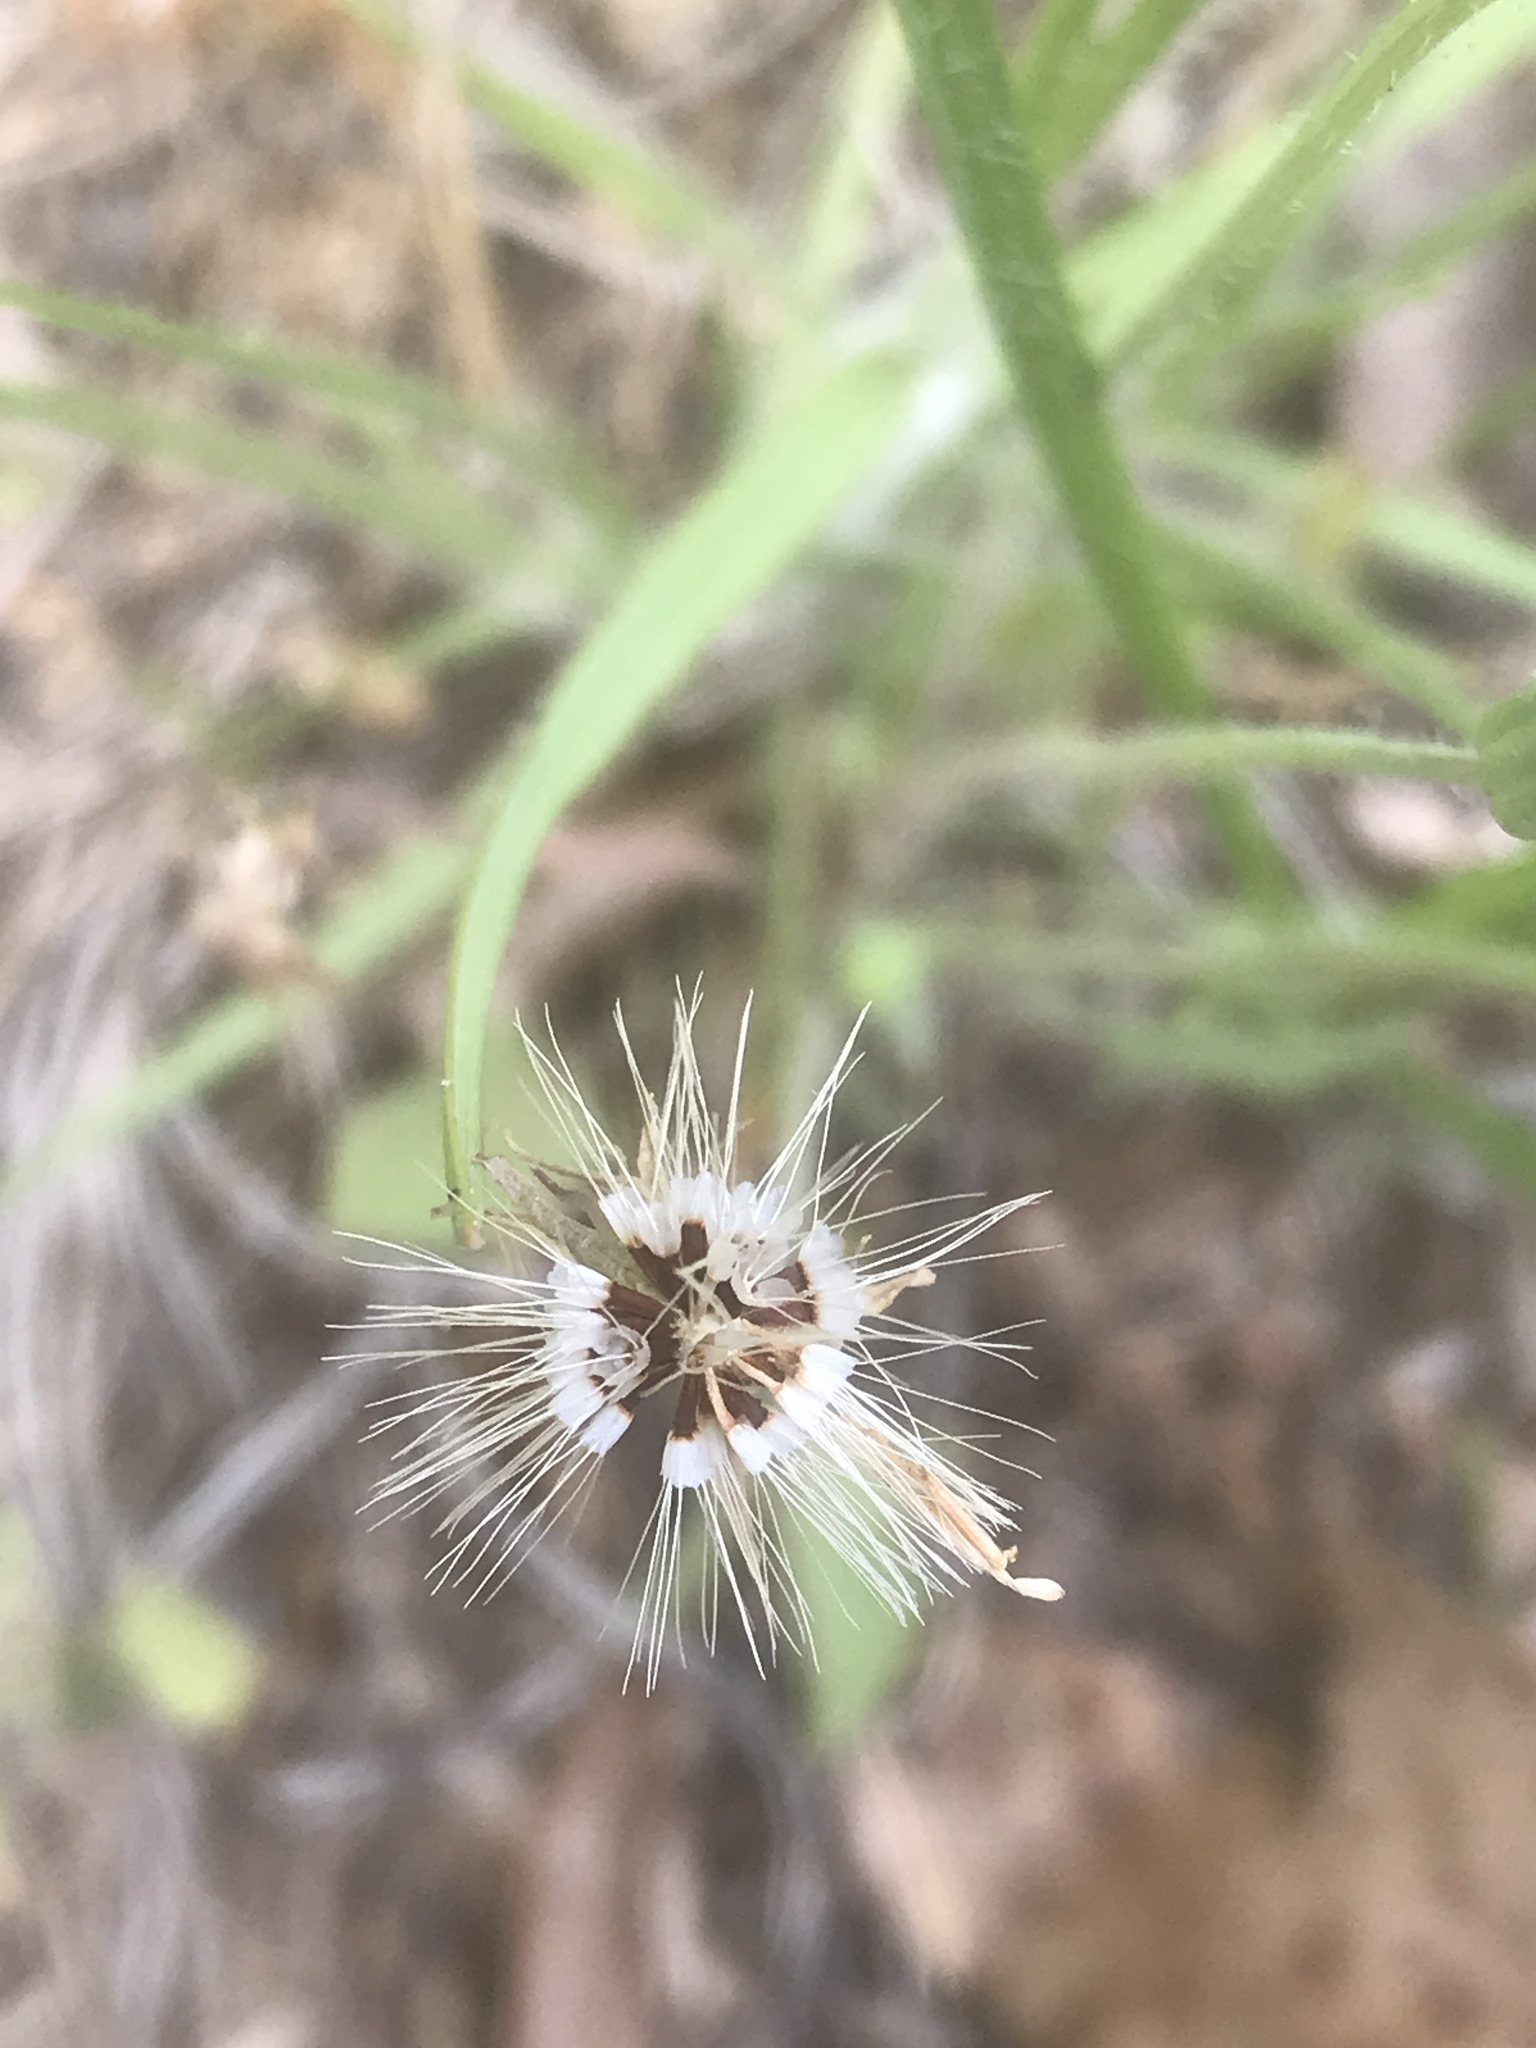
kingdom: Plantae
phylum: Tracheophyta
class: Magnoliopsida
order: Asterales
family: Asteraceae
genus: Krigia
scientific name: Krigia virginica
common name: Virginia dwarf-dandelion
